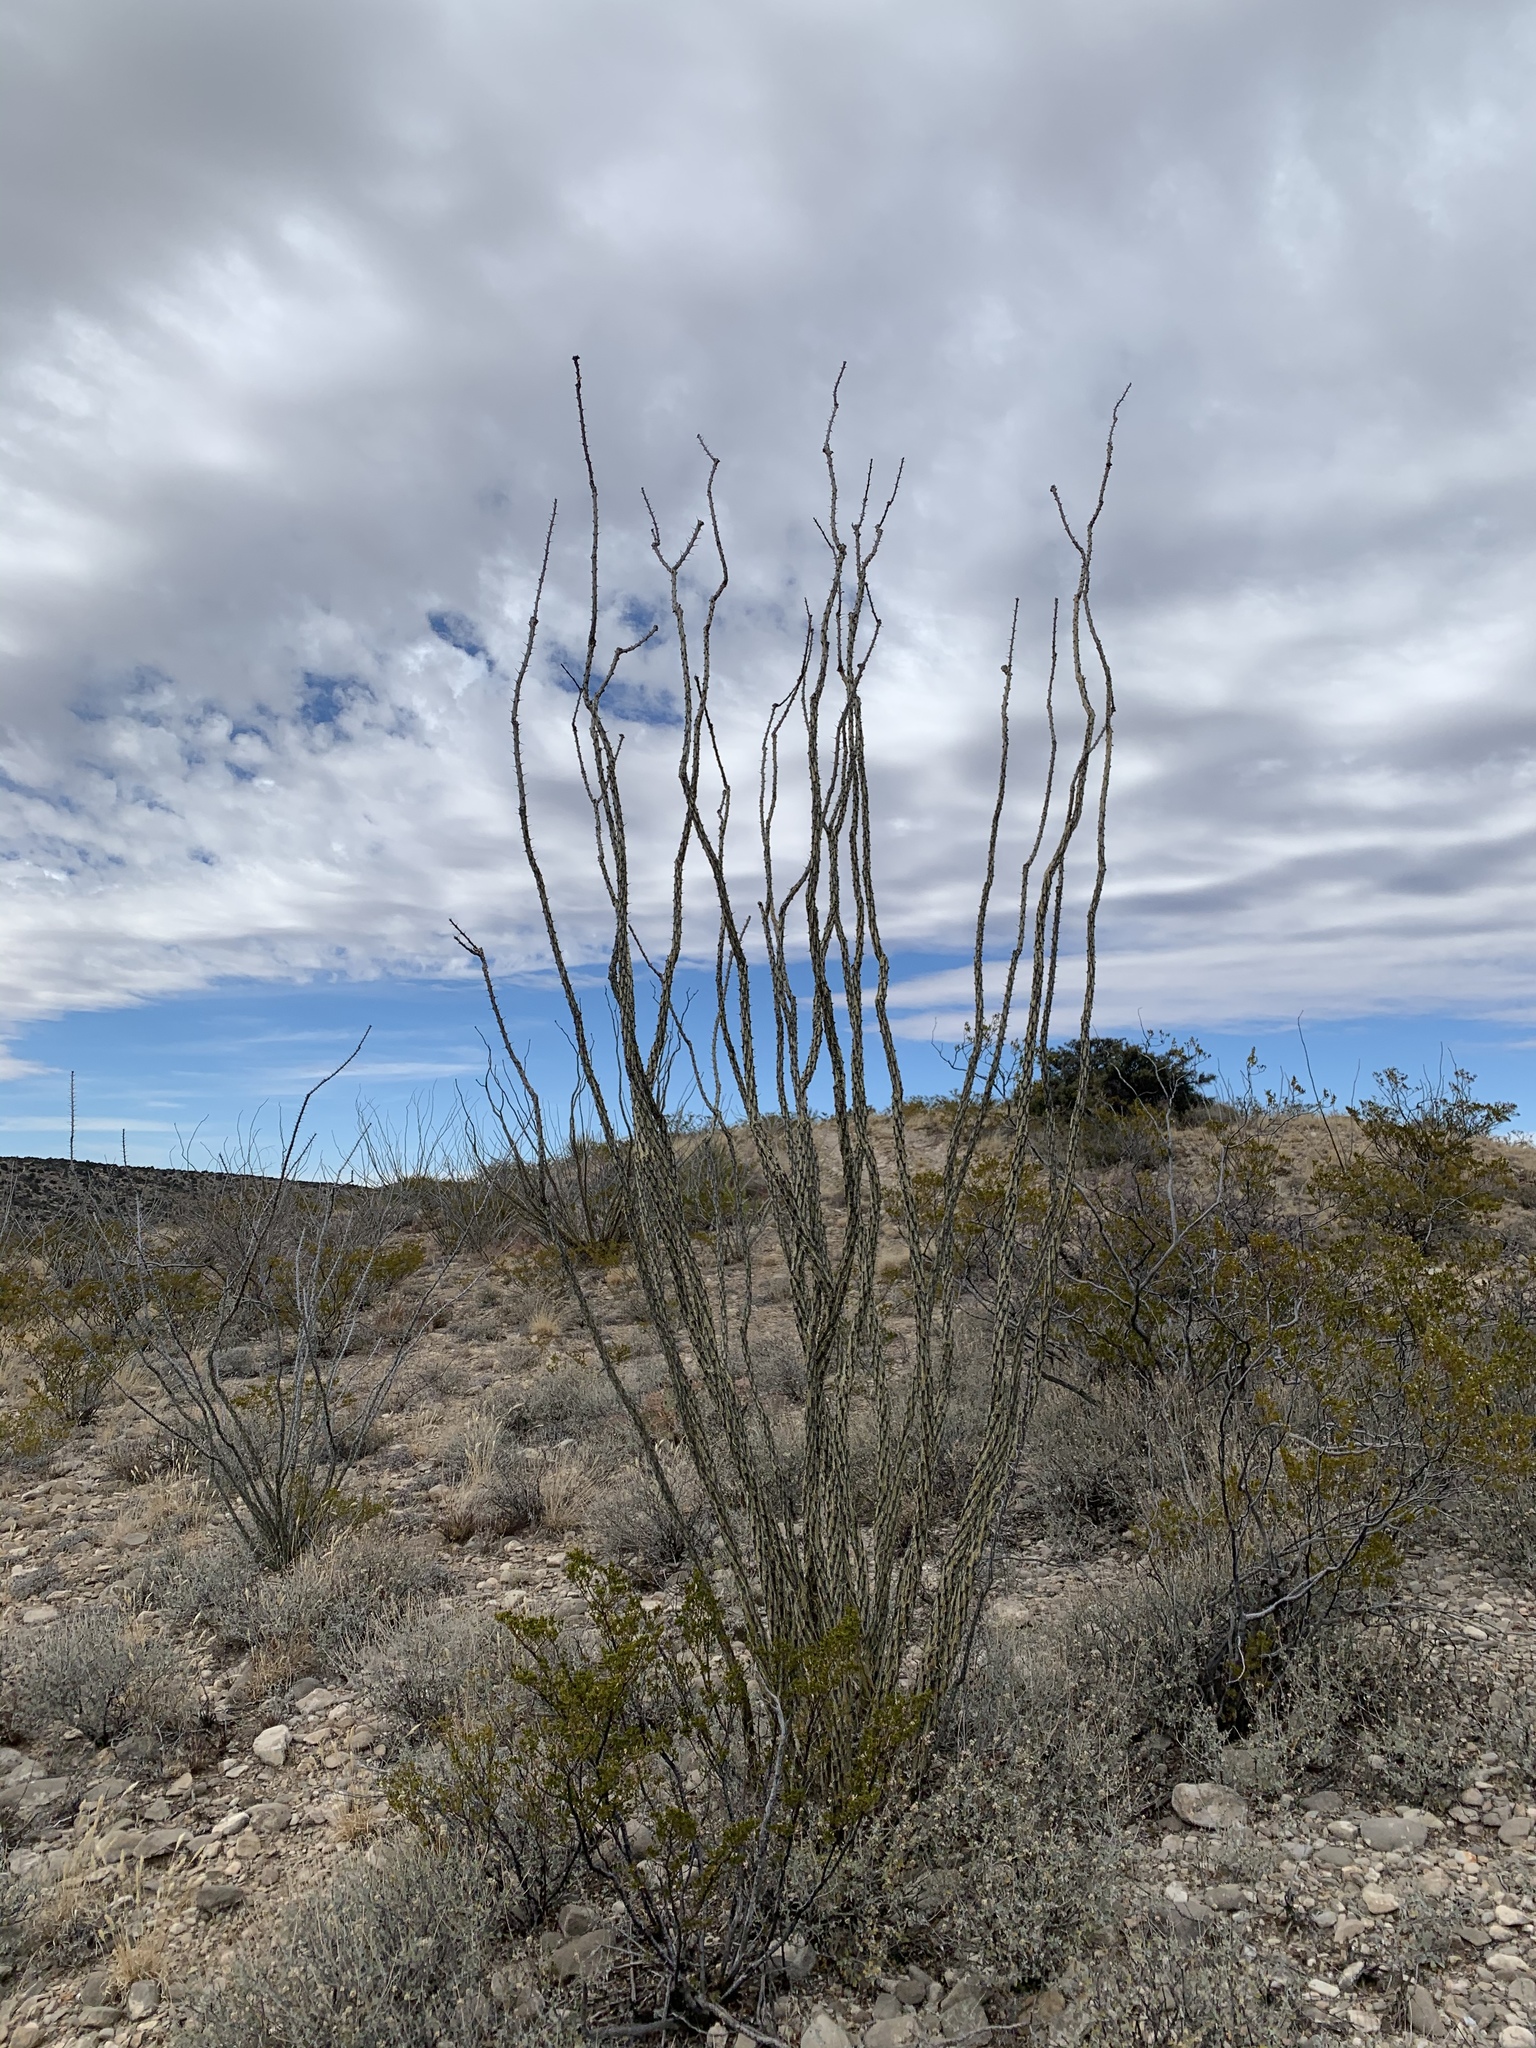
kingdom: Plantae
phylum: Tracheophyta
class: Magnoliopsida
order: Ericales
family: Fouquieriaceae
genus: Fouquieria
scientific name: Fouquieria splendens
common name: Vine-cactus
